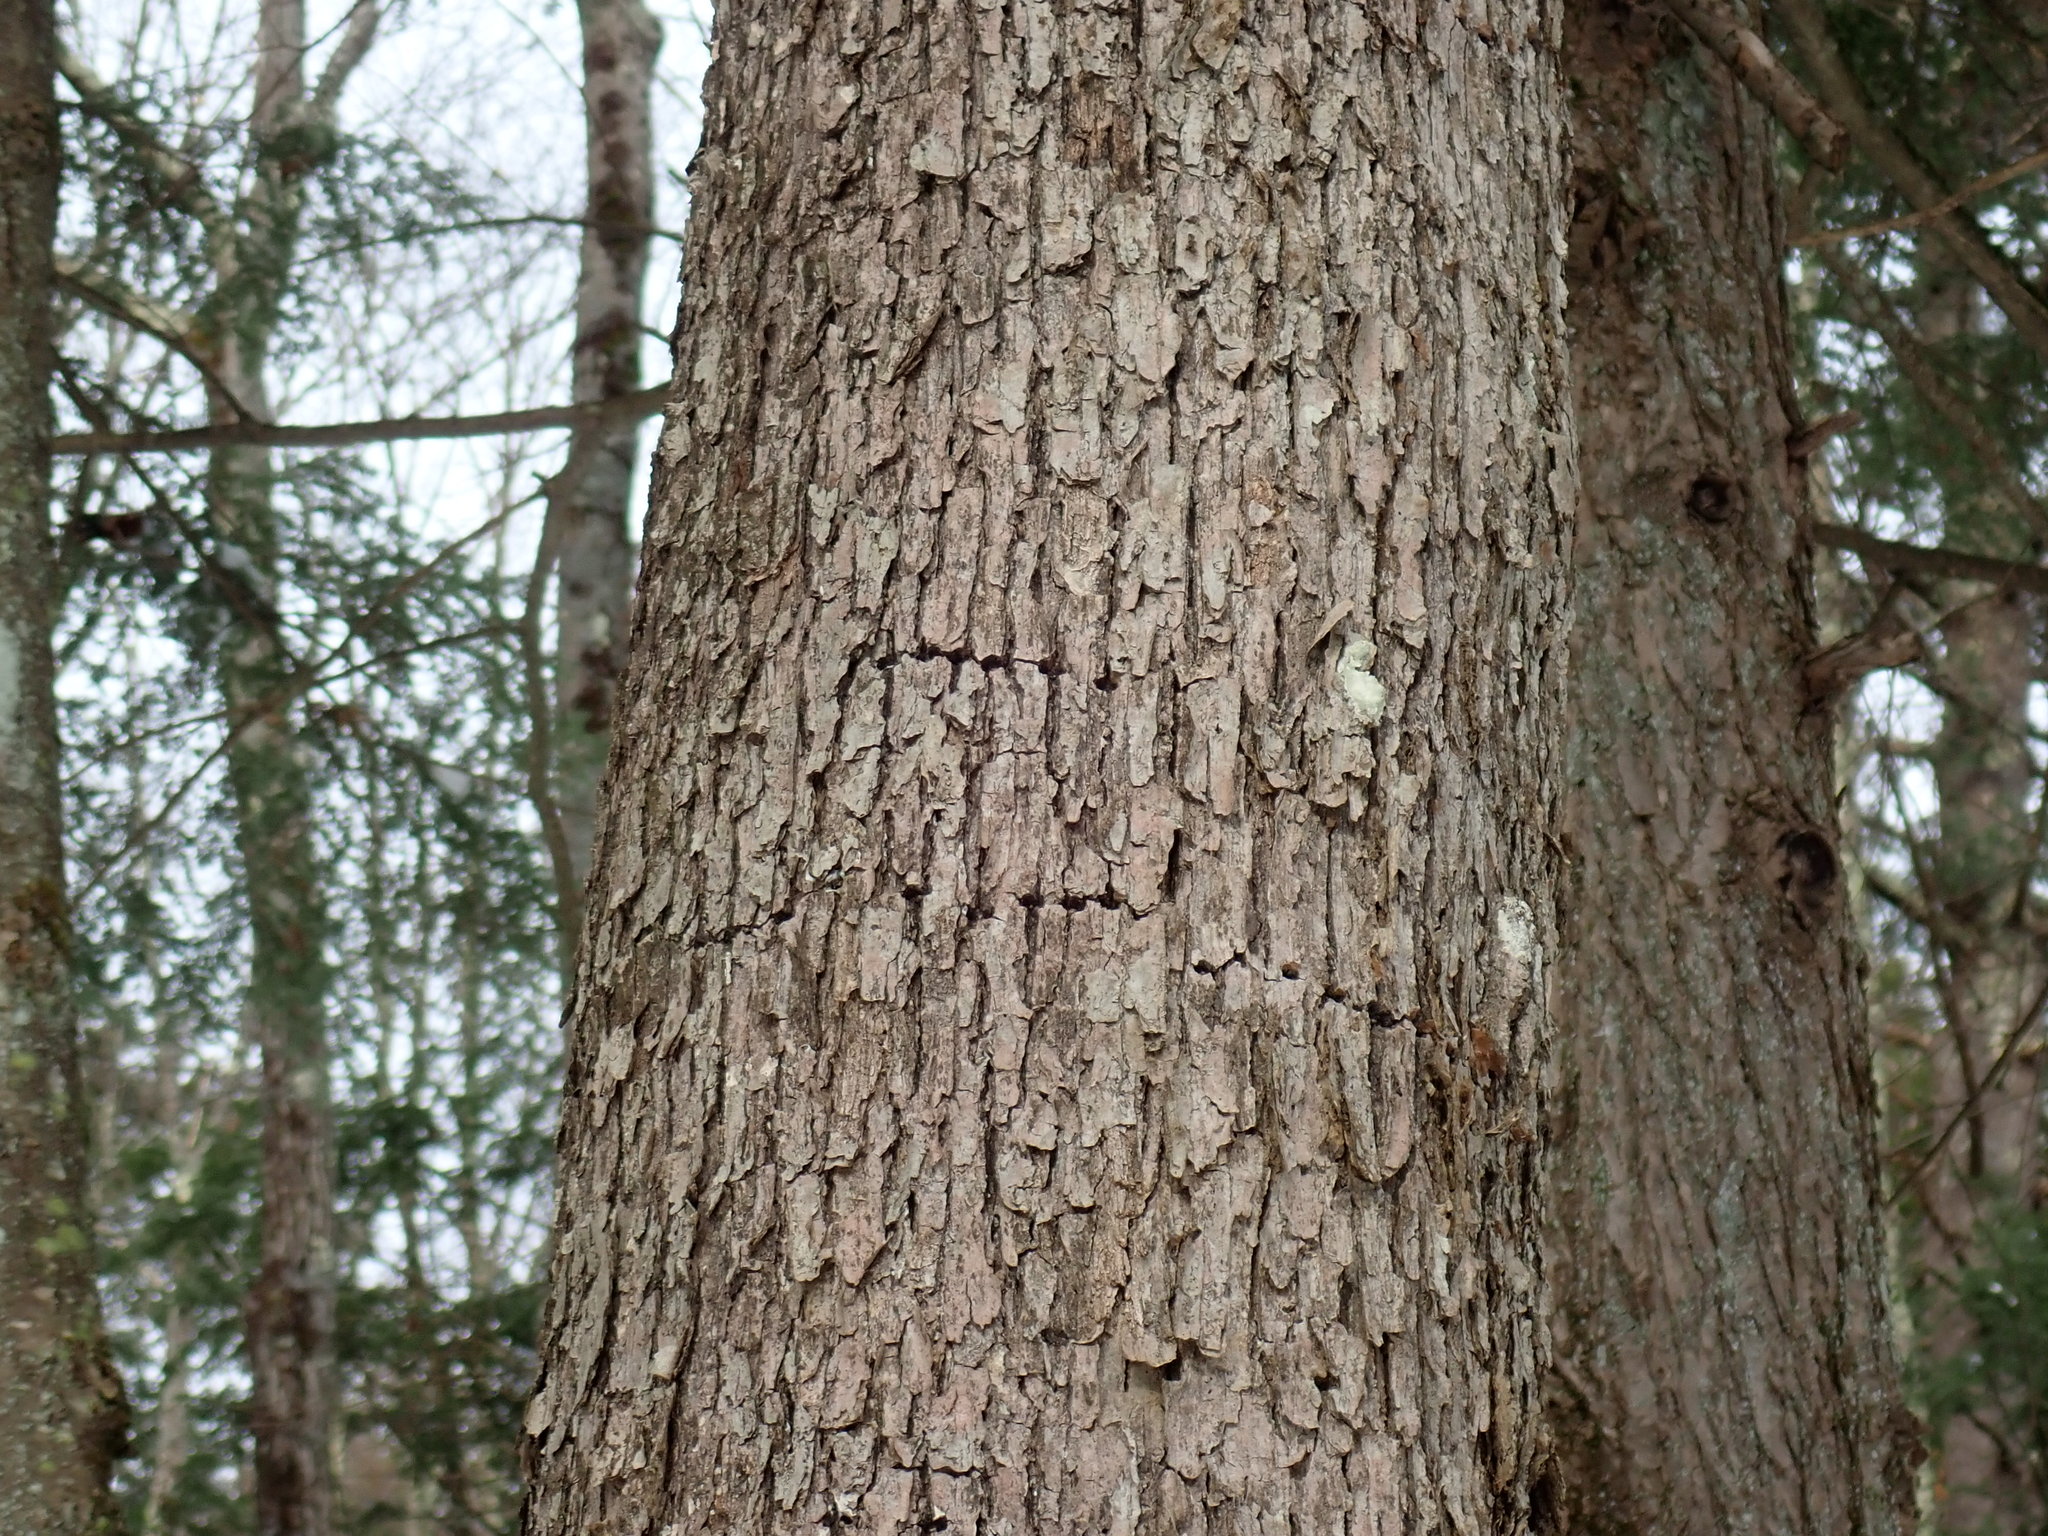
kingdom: Animalia
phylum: Chordata
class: Aves
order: Piciformes
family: Picidae
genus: Sphyrapicus
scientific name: Sphyrapicus varius
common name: Yellow-bellied sapsucker
